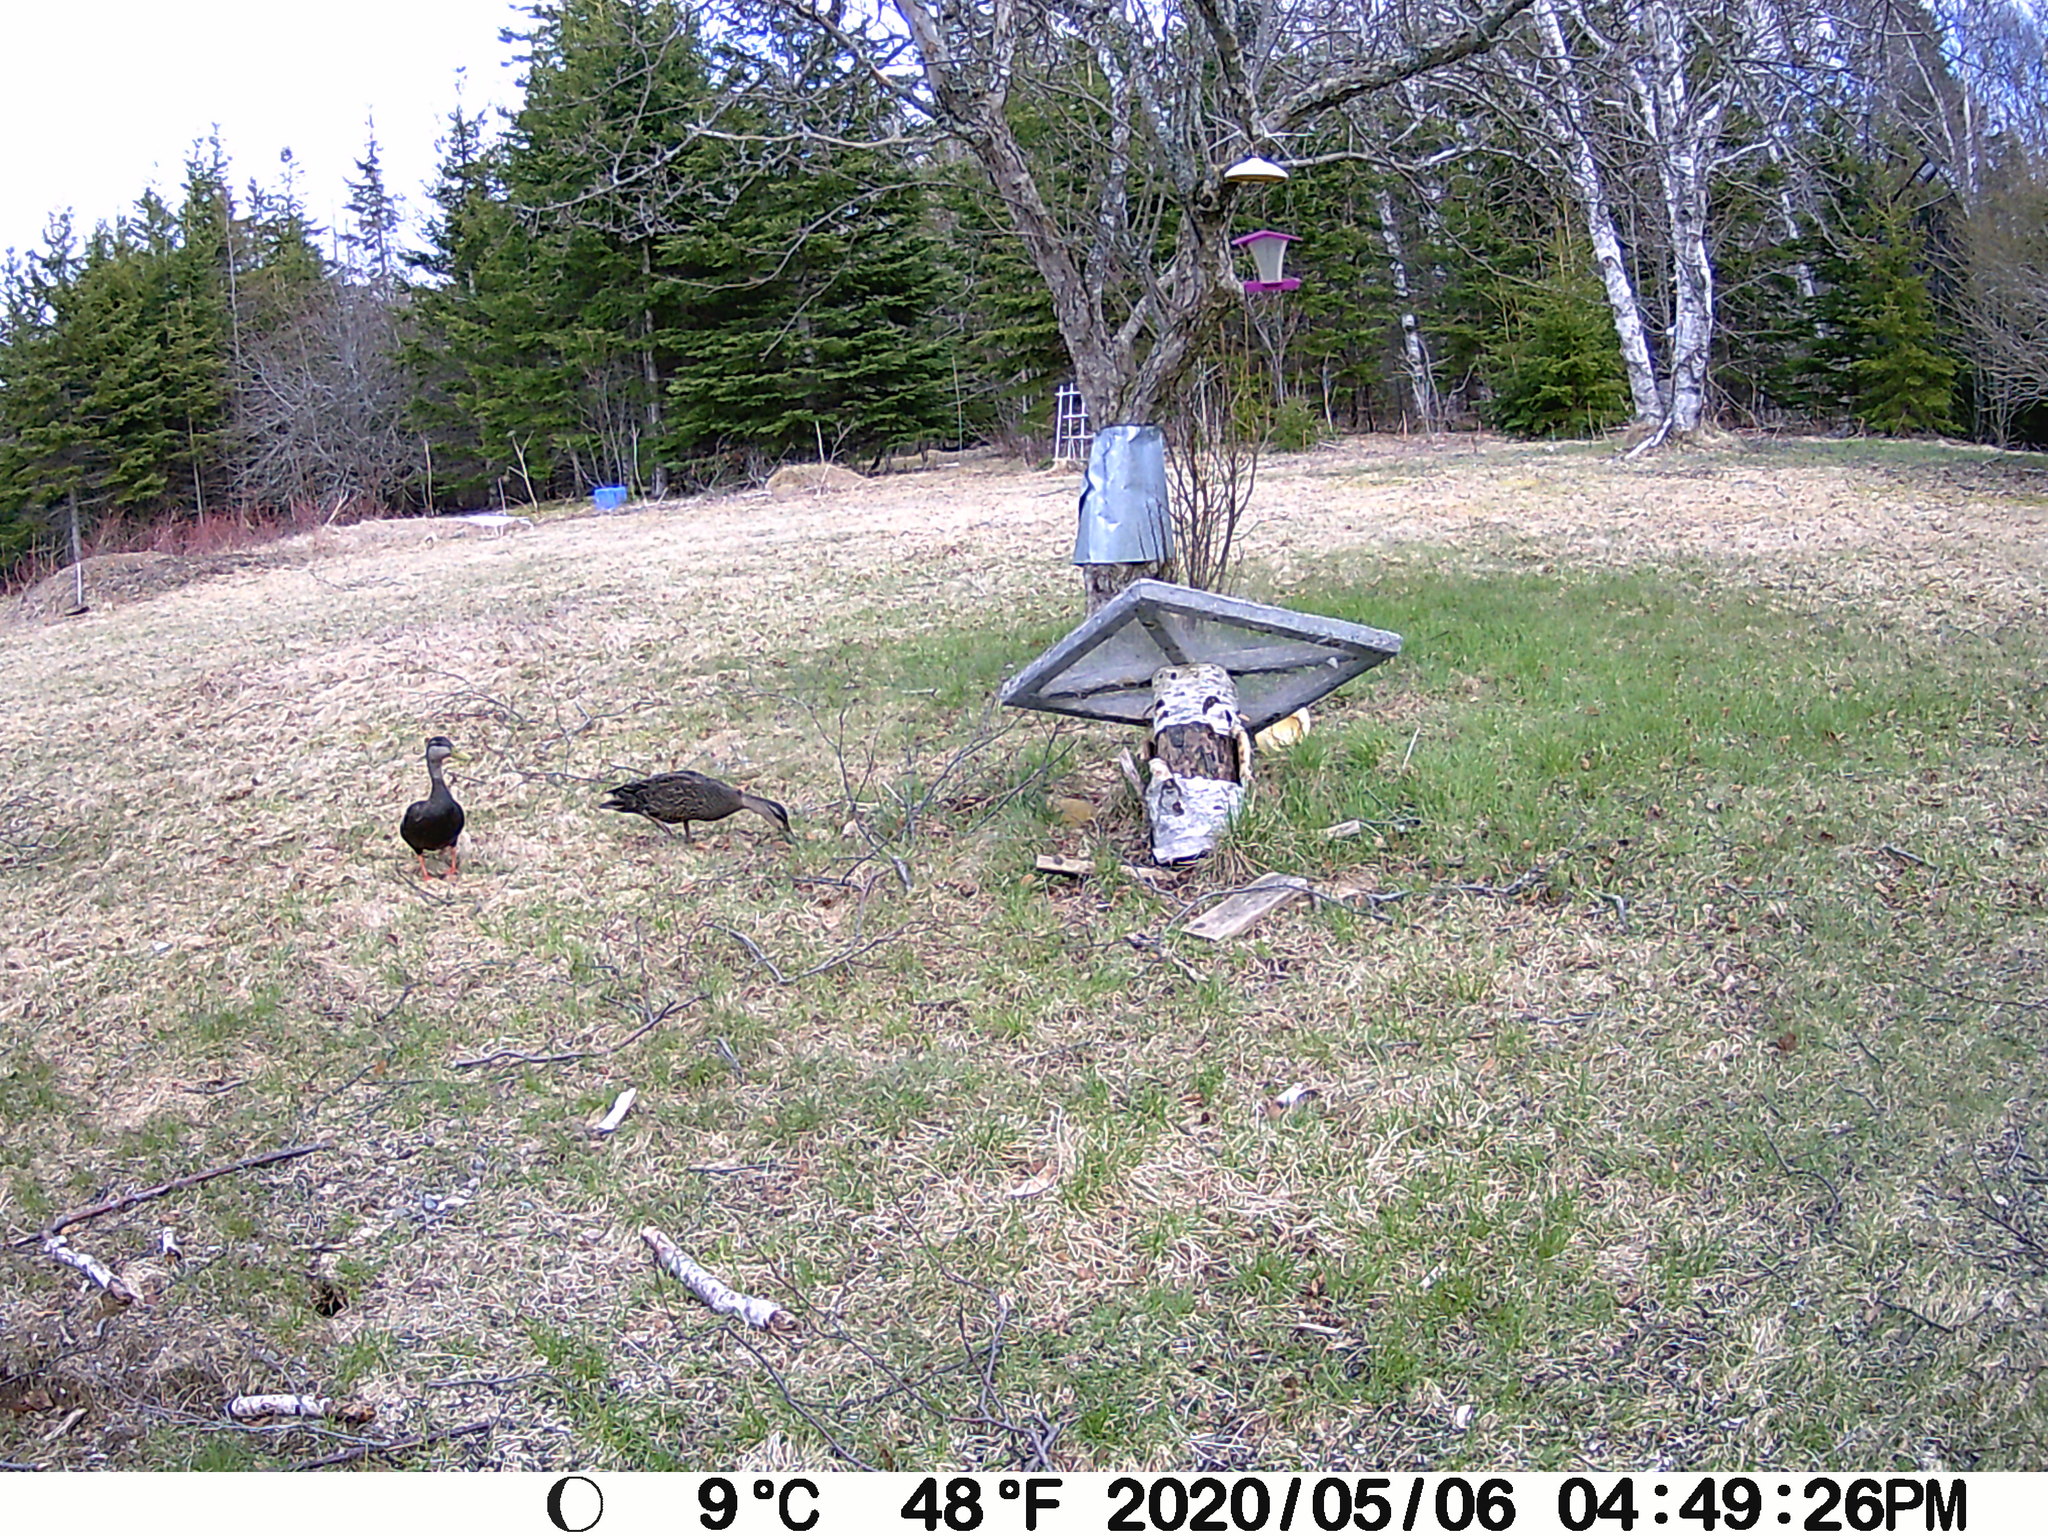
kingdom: Animalia
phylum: Chordata
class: Aves
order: Anseriformes
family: Anatidae
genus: Anas
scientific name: Anas rubripes
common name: American black duck
